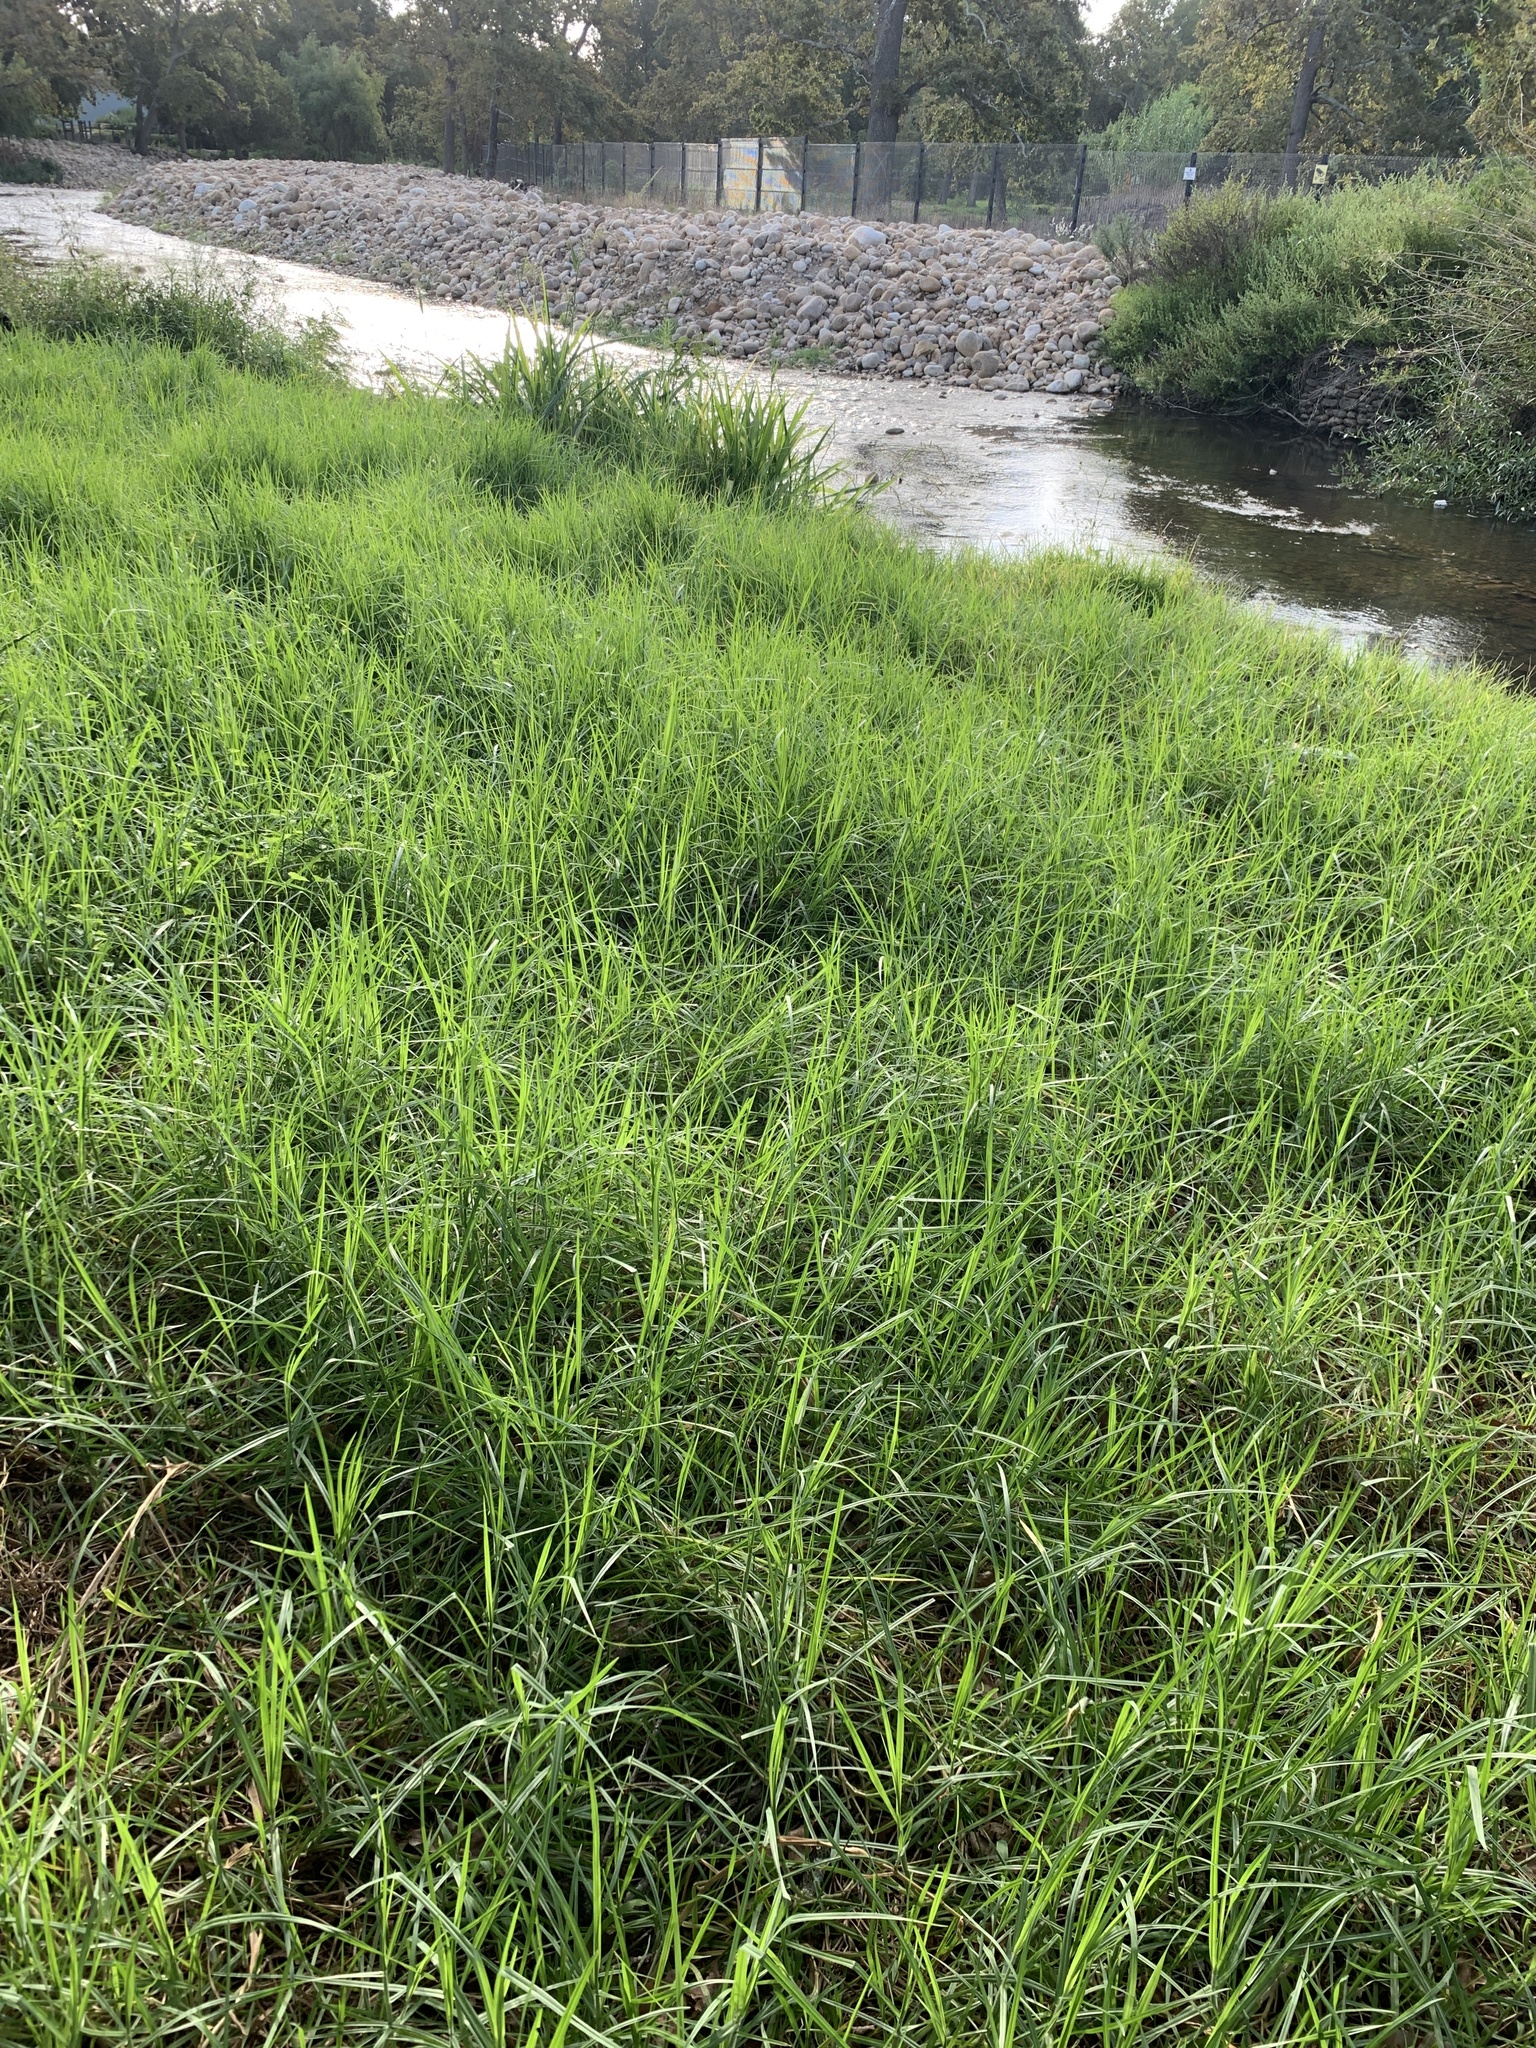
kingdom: Plantae
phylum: Tracheophyta
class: Liliopsida
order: Poales
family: Poaceae
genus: Cenchrus
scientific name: Cenchrus clandestinus
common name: Kikuyugrass
